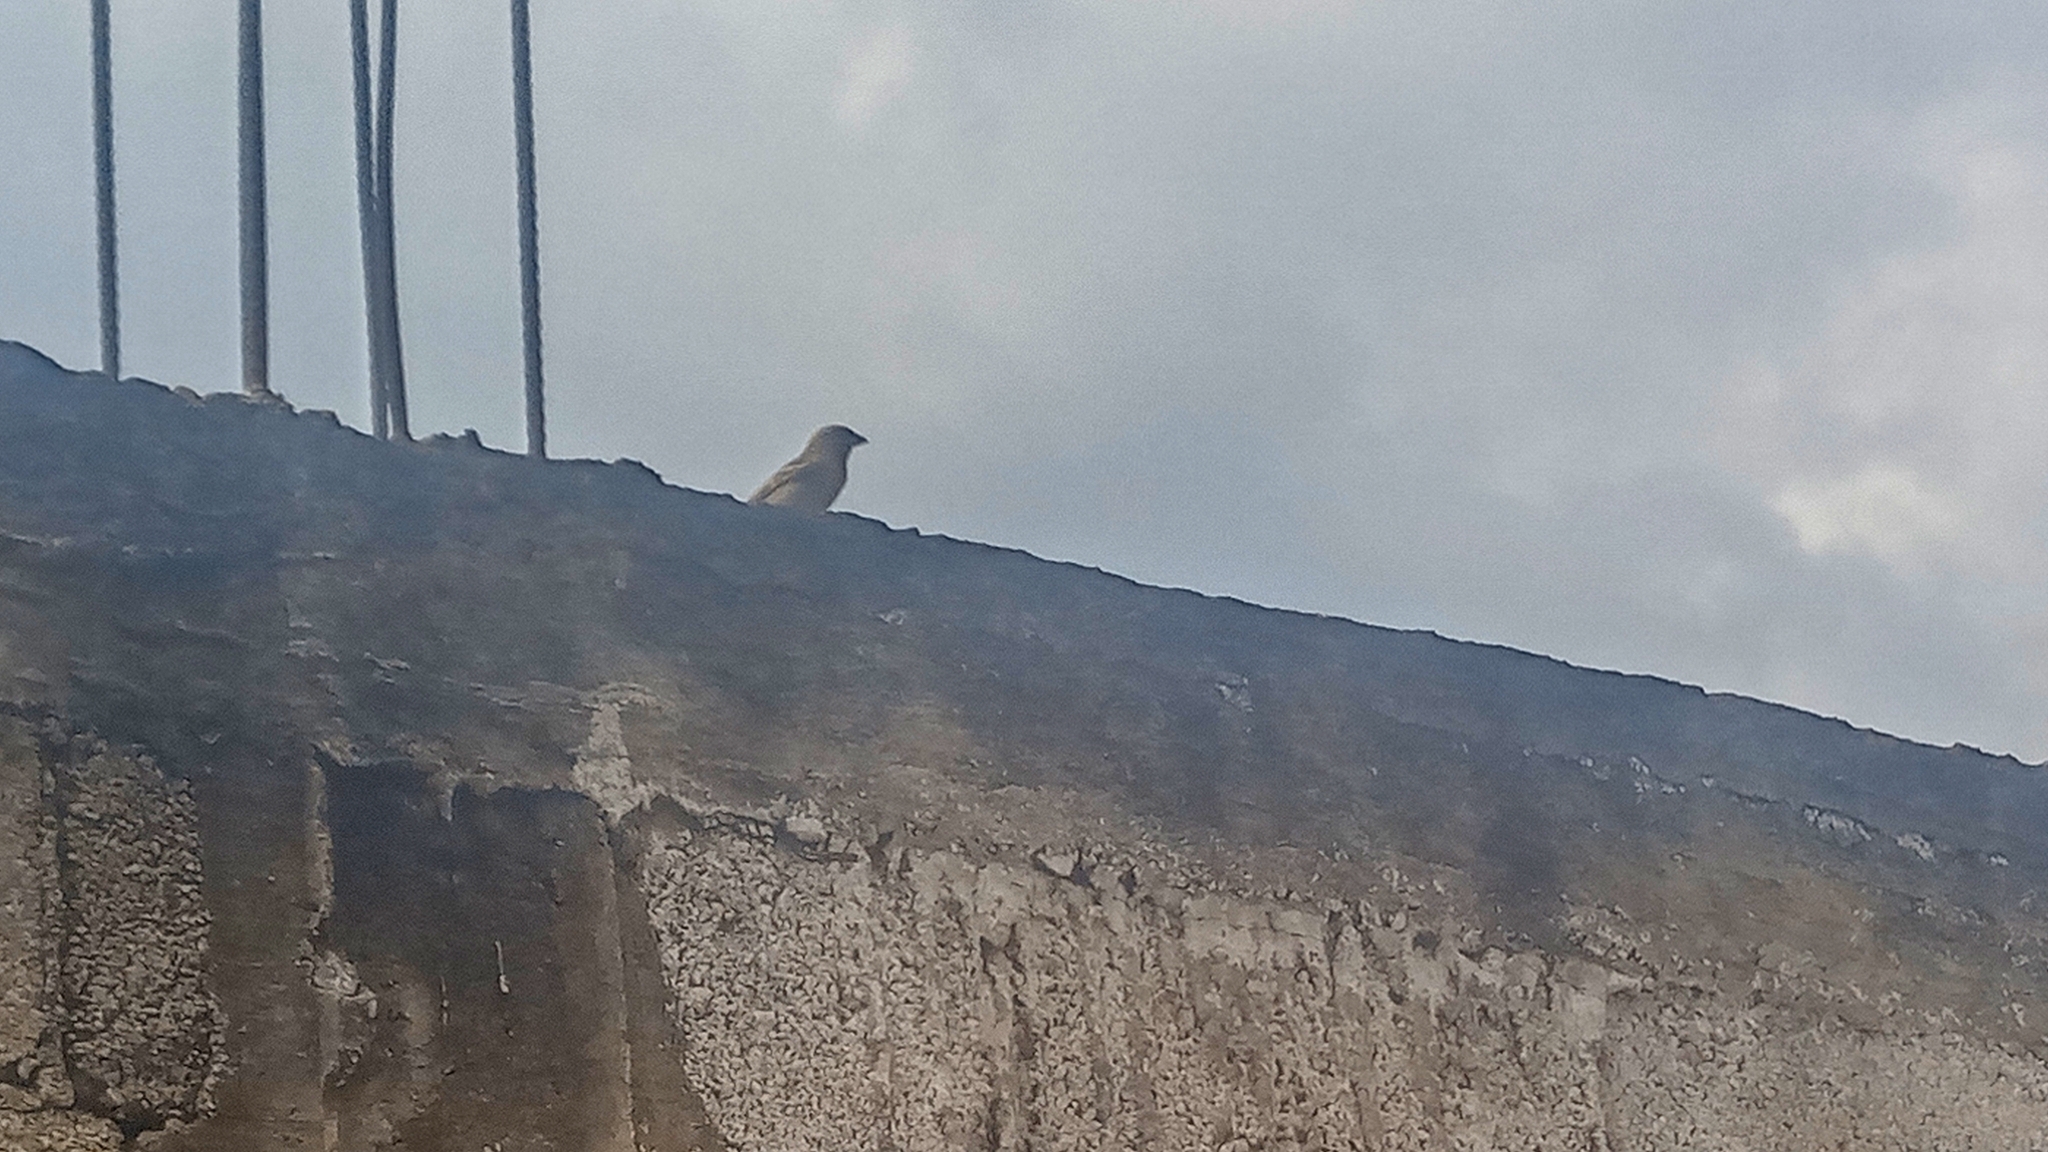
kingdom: Animalia
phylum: Chordata
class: Aves
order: Passeriformes
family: Passeridae
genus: Passer
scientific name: Passer domesticus
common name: House sparrow
